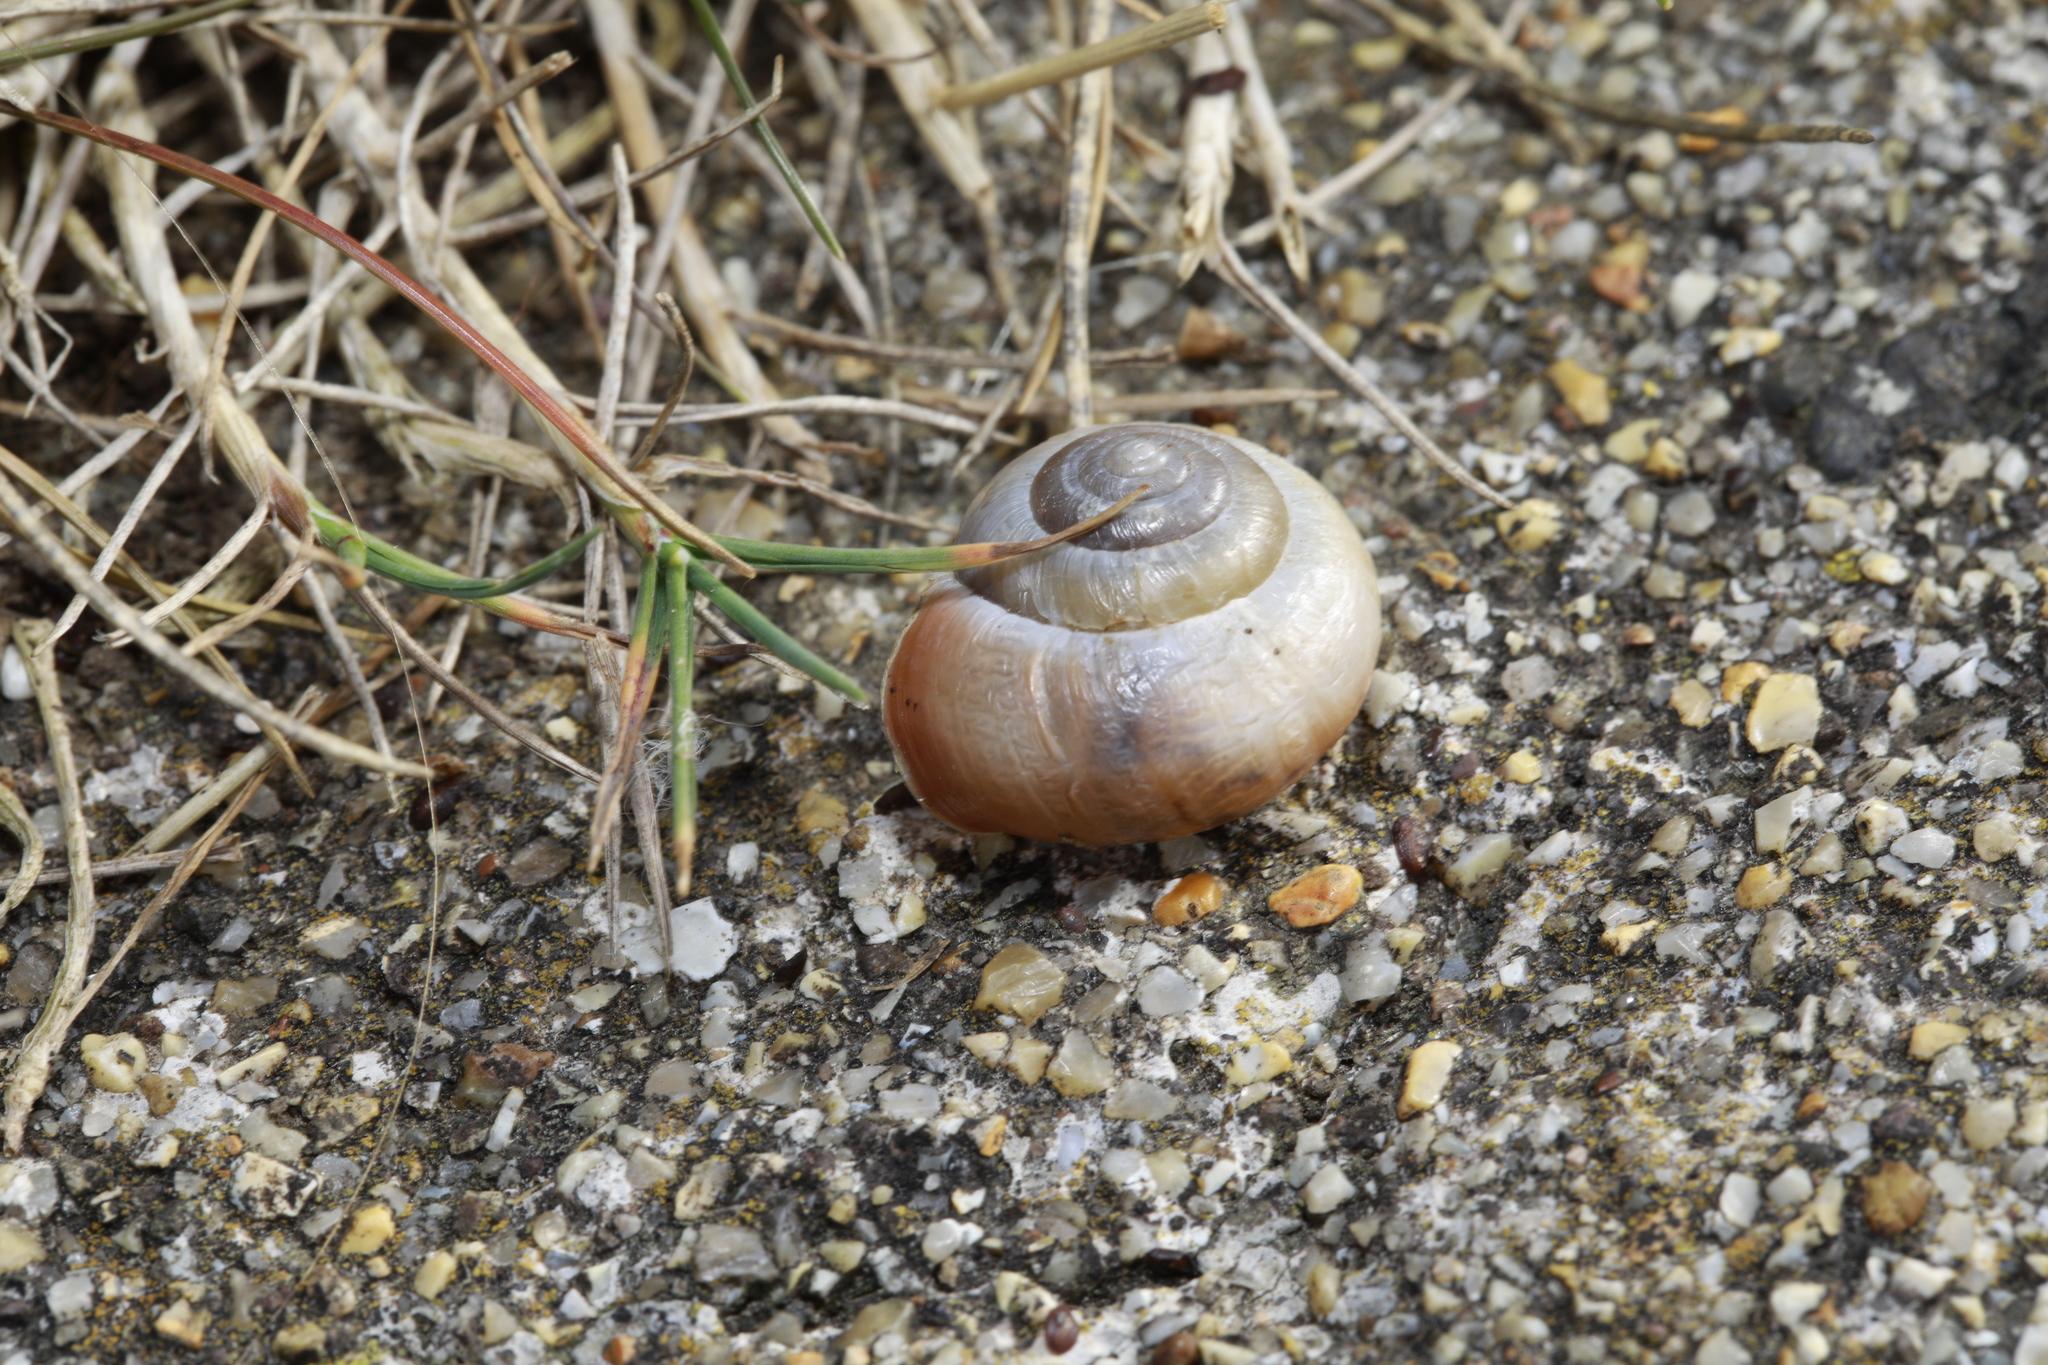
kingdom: Animalia
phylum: Mollusca
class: Gastropoda
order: Stylommatophora
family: Hygromiidae
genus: Monacha
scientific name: Monacha cantiana
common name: Kentish snail
